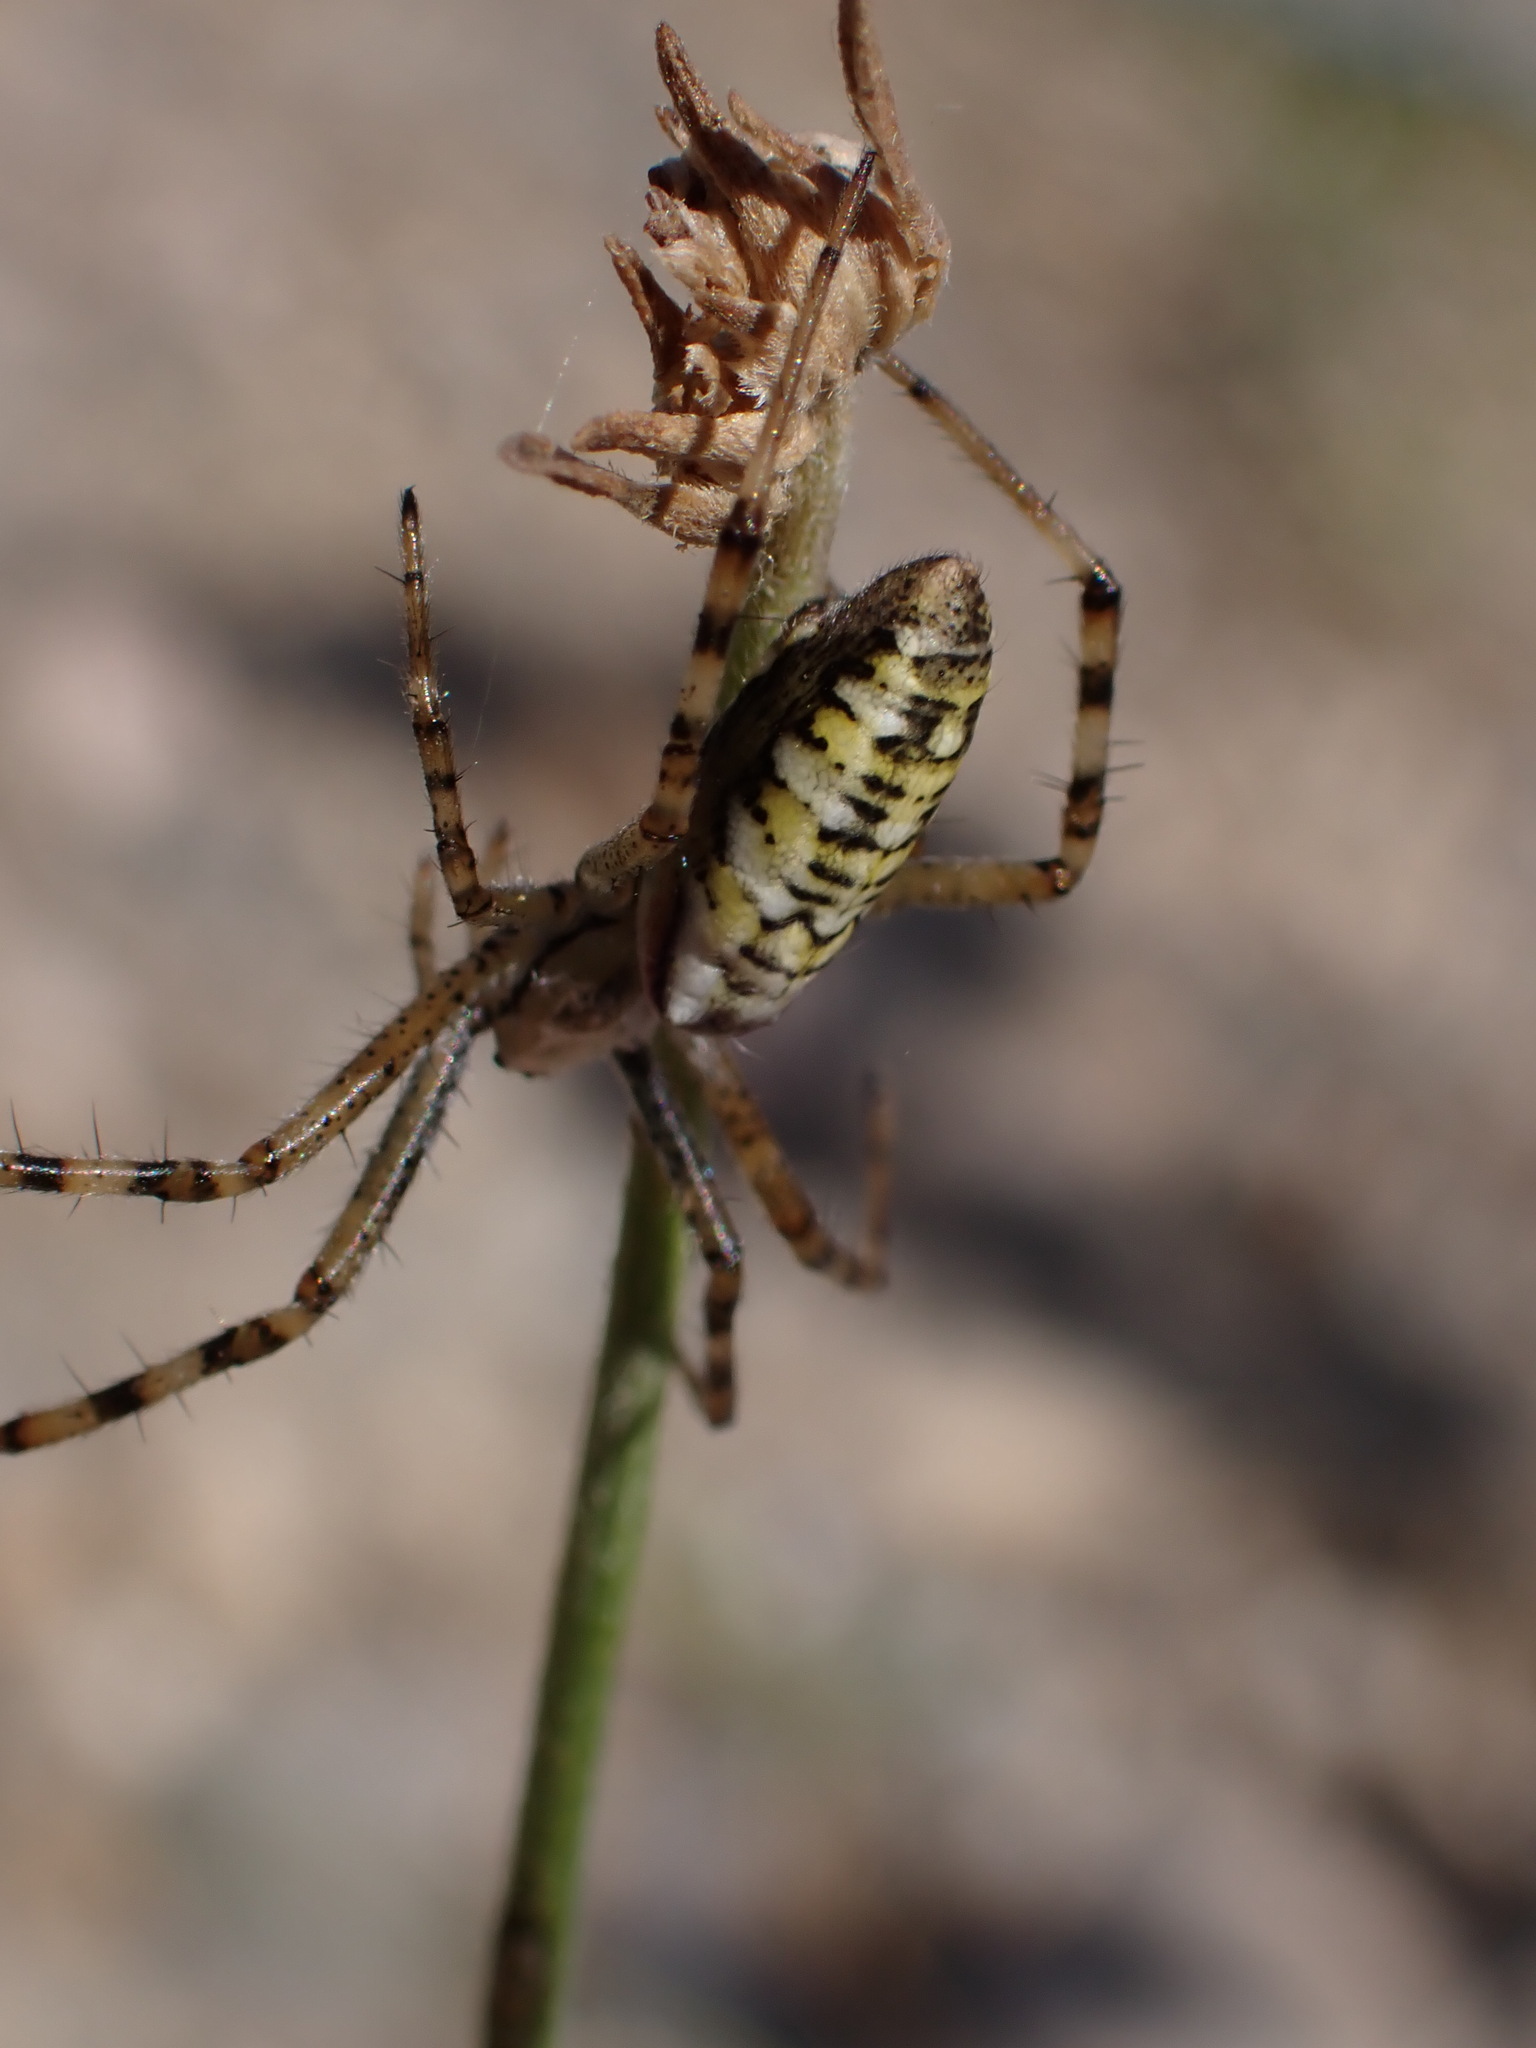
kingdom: Animalia
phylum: Arthropoda
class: Arachnida
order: Araneae
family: Araneidae
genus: Argiope
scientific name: Argiope bruennichi
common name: Wasp spider
